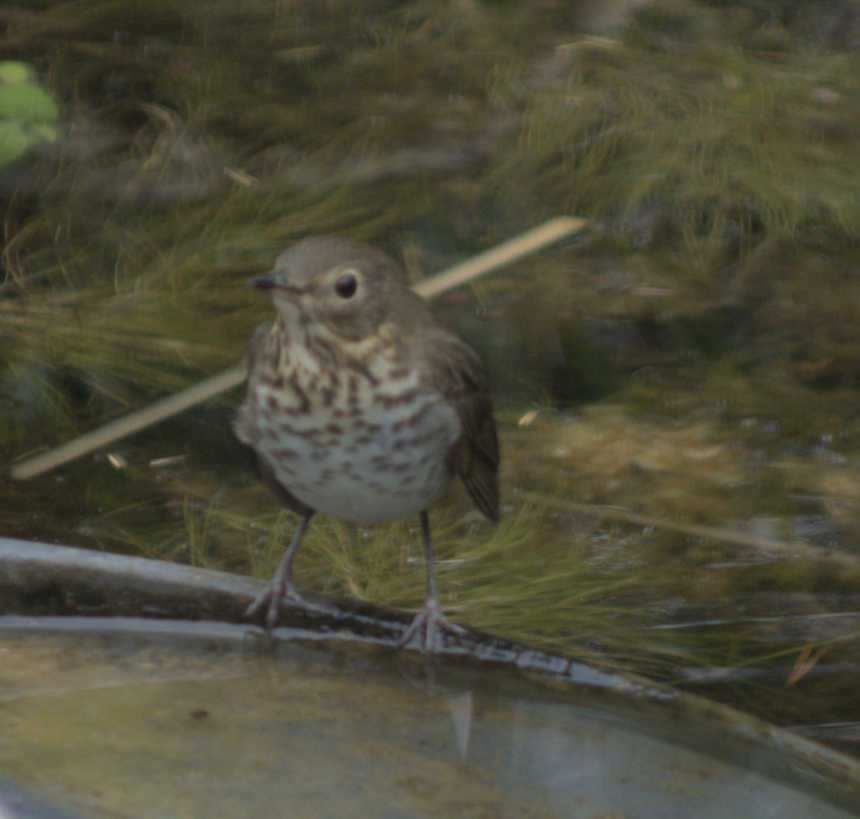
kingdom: Animalia
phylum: Chordata
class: Aves
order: Passeriformes
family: Turdidae
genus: Catharus
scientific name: Catharus ustulatus
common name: Swainson's thrush
